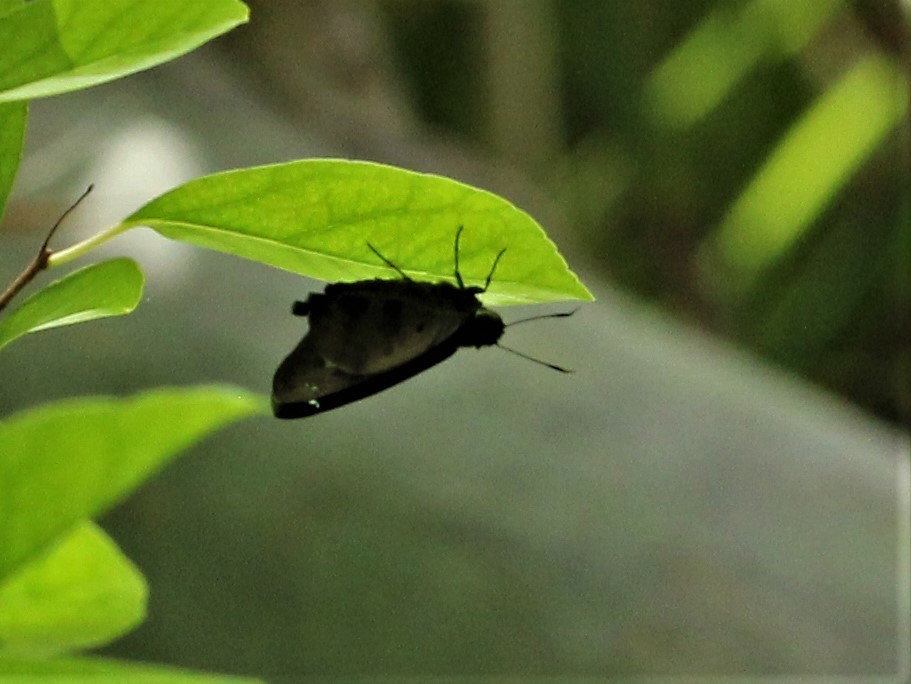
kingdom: Animalia
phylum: Arthropoda
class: Insecta
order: Lepidoptera
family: Hesperiidae
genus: Polygonus
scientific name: Polygonus leo
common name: Hammoch skipper
